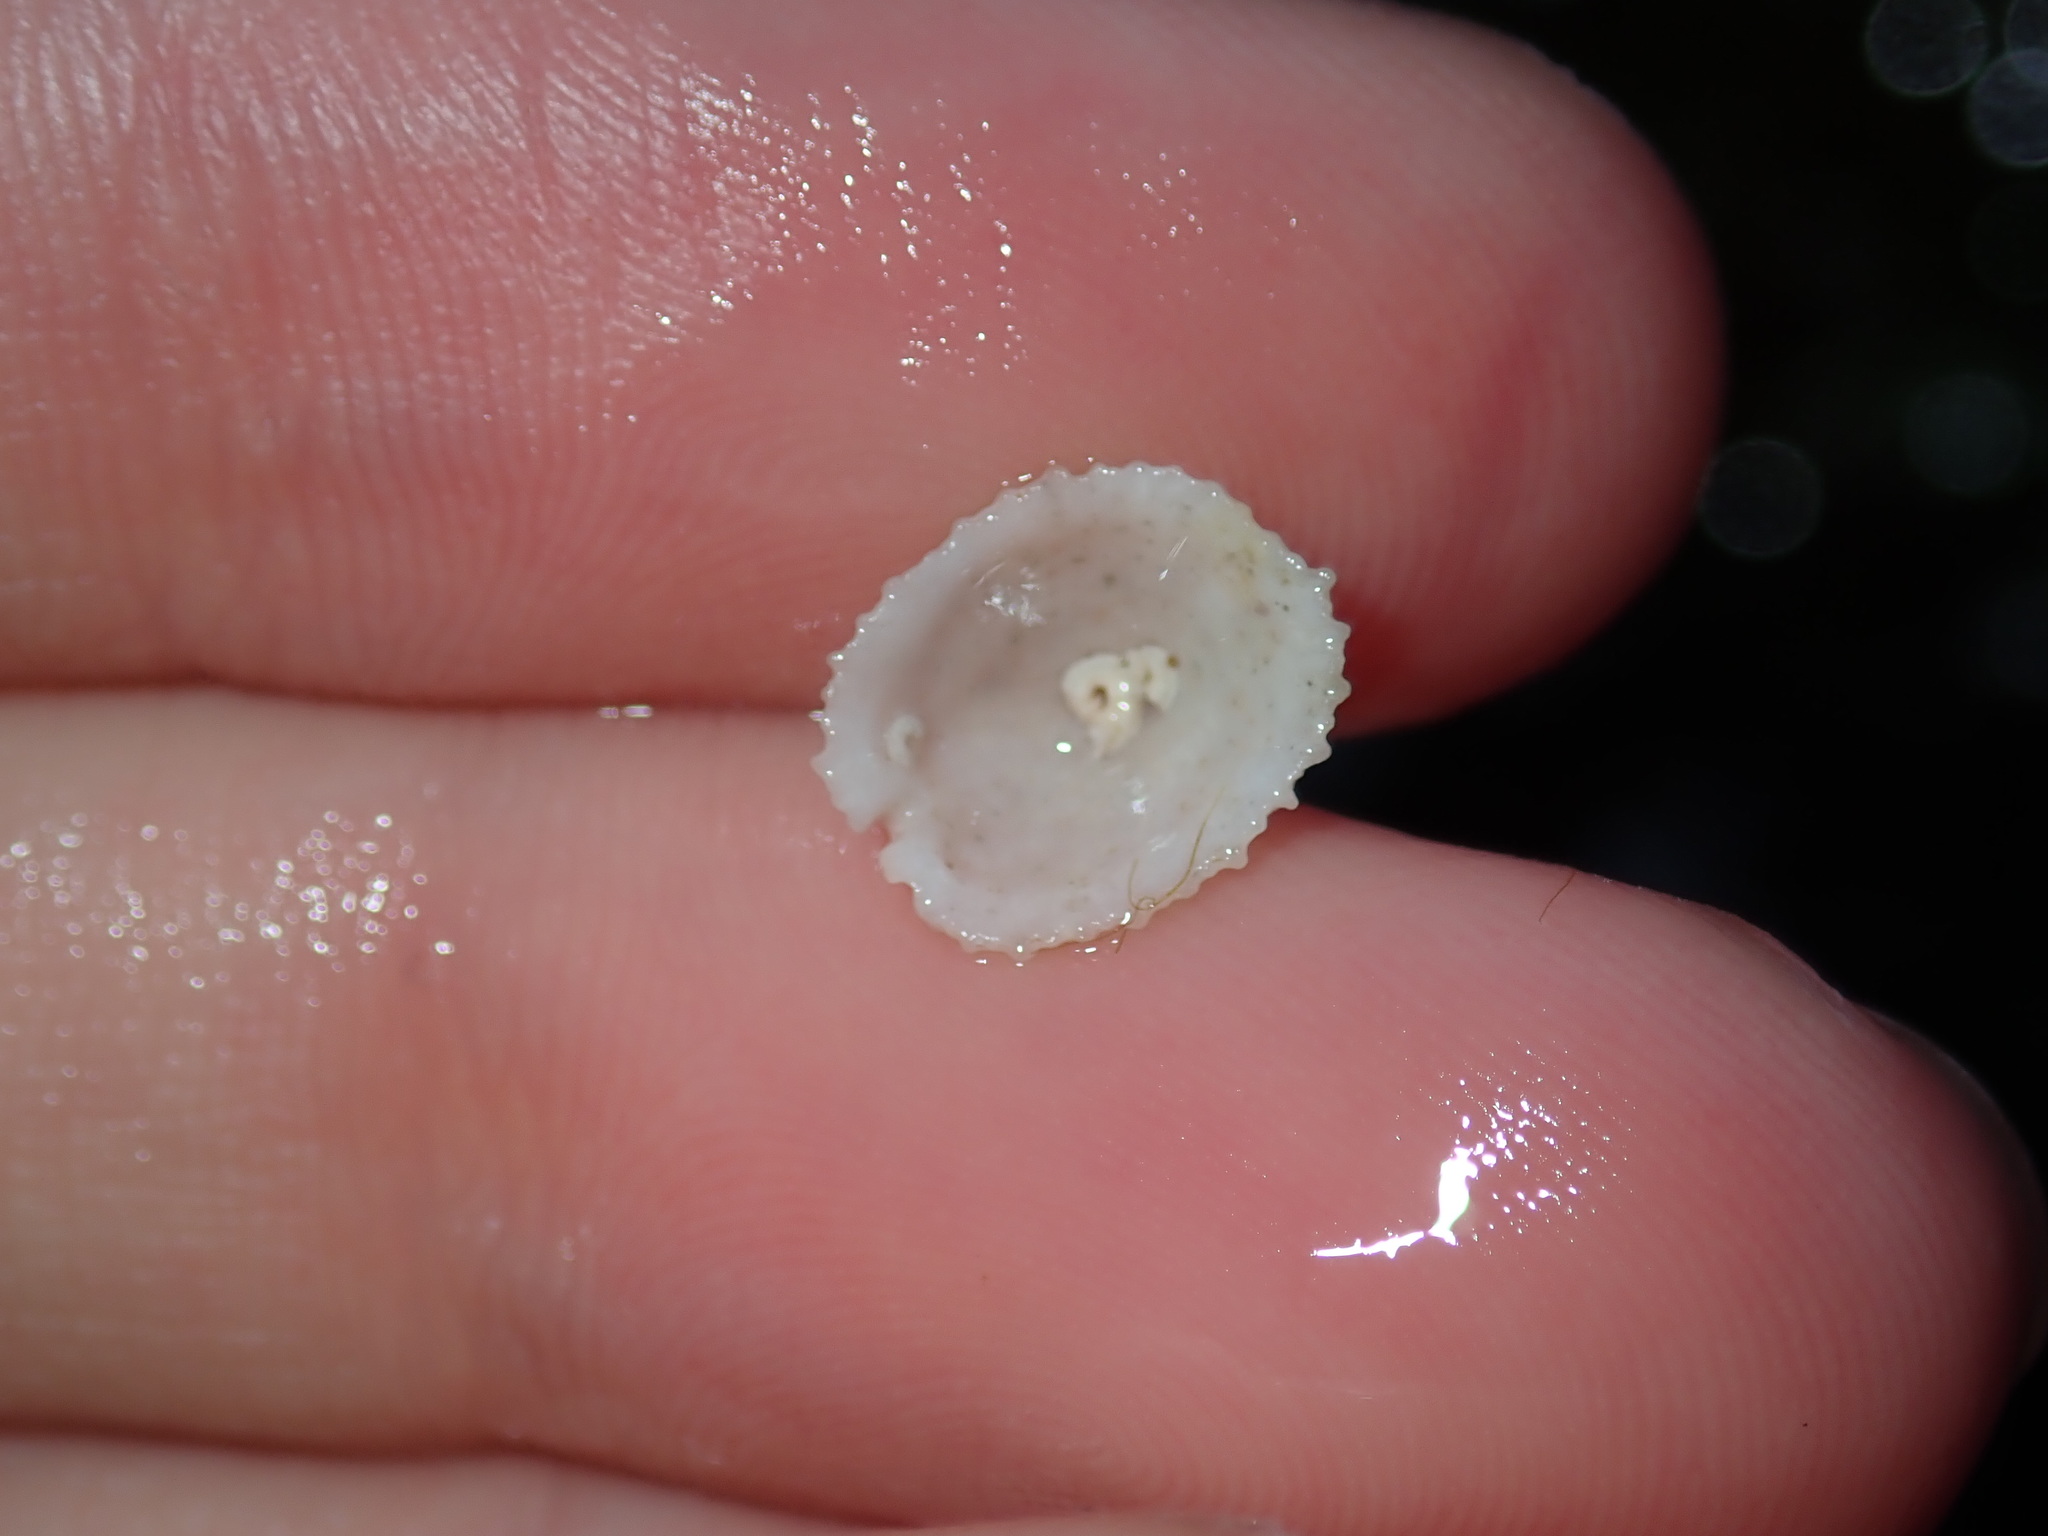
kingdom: Animalia
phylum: Mollusca
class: Gastropoda
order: Lepetellida
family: Fissurellidae
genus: Emarginula
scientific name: Emarginula candida
